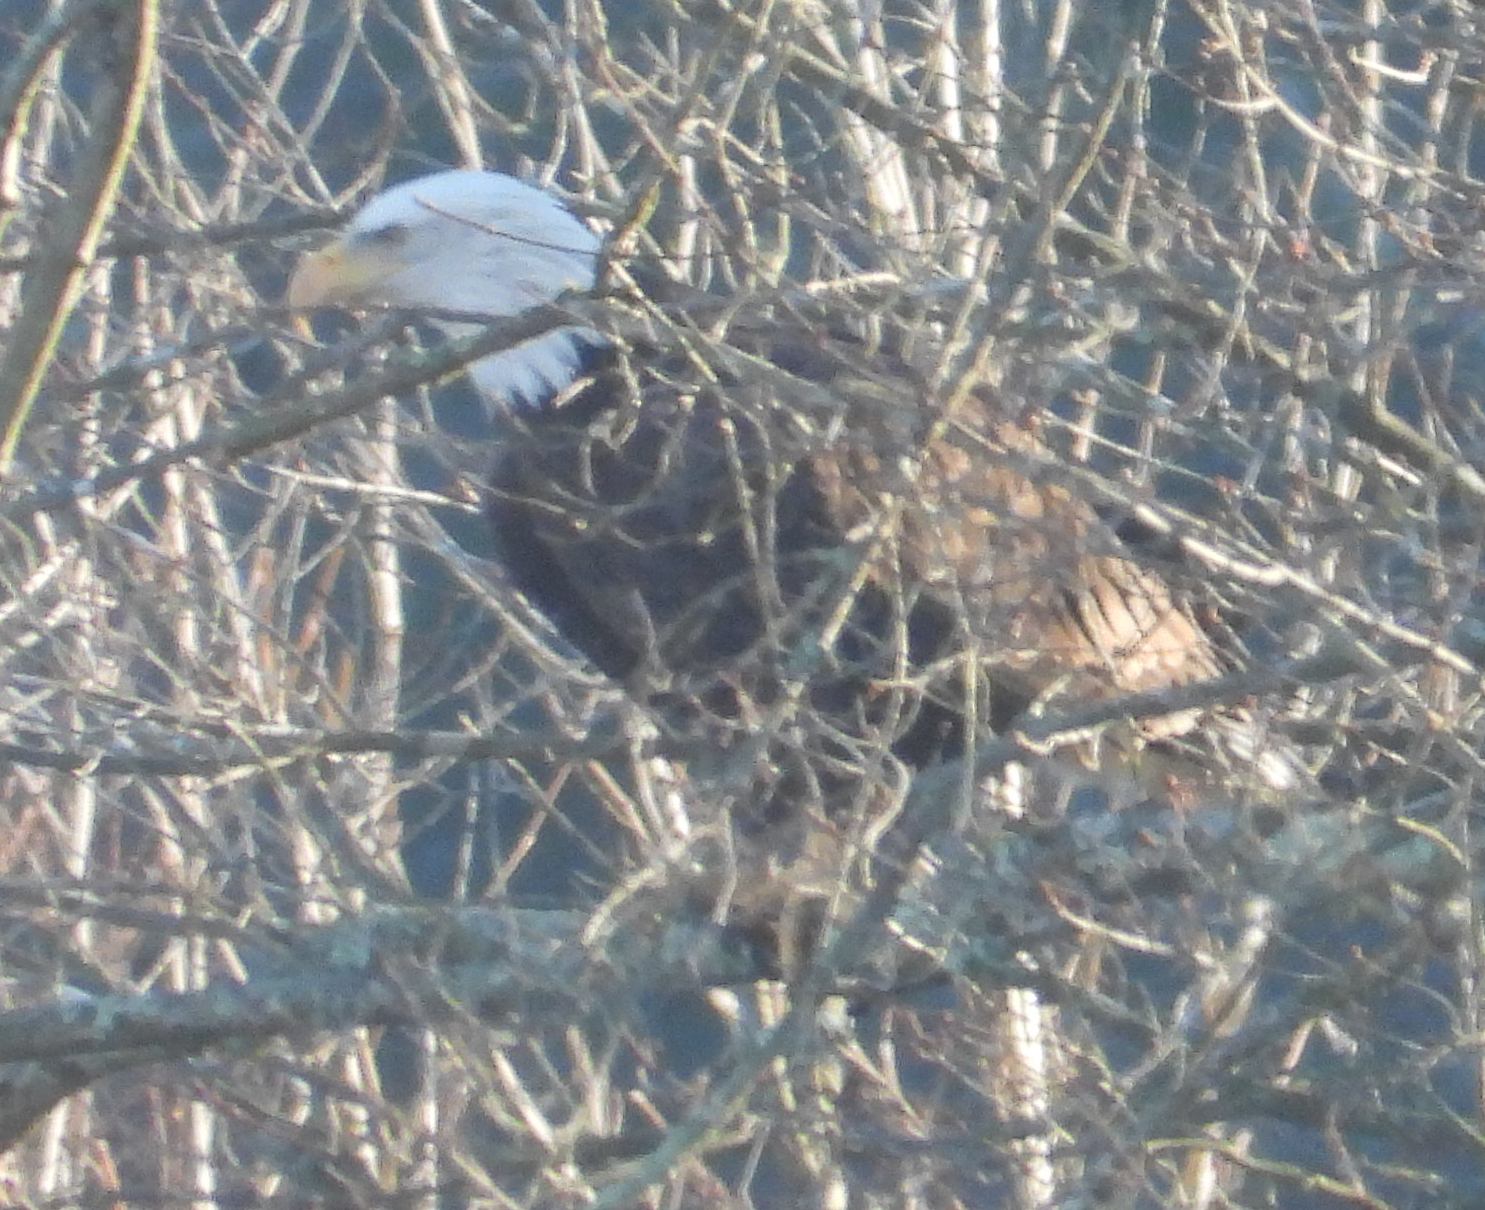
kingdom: Animalia
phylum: Chordata
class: Aves
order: Accipitriformes
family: Accipitridae
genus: Haliaeetus
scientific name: Haliaeetus leucocephalus
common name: Bald eagle
